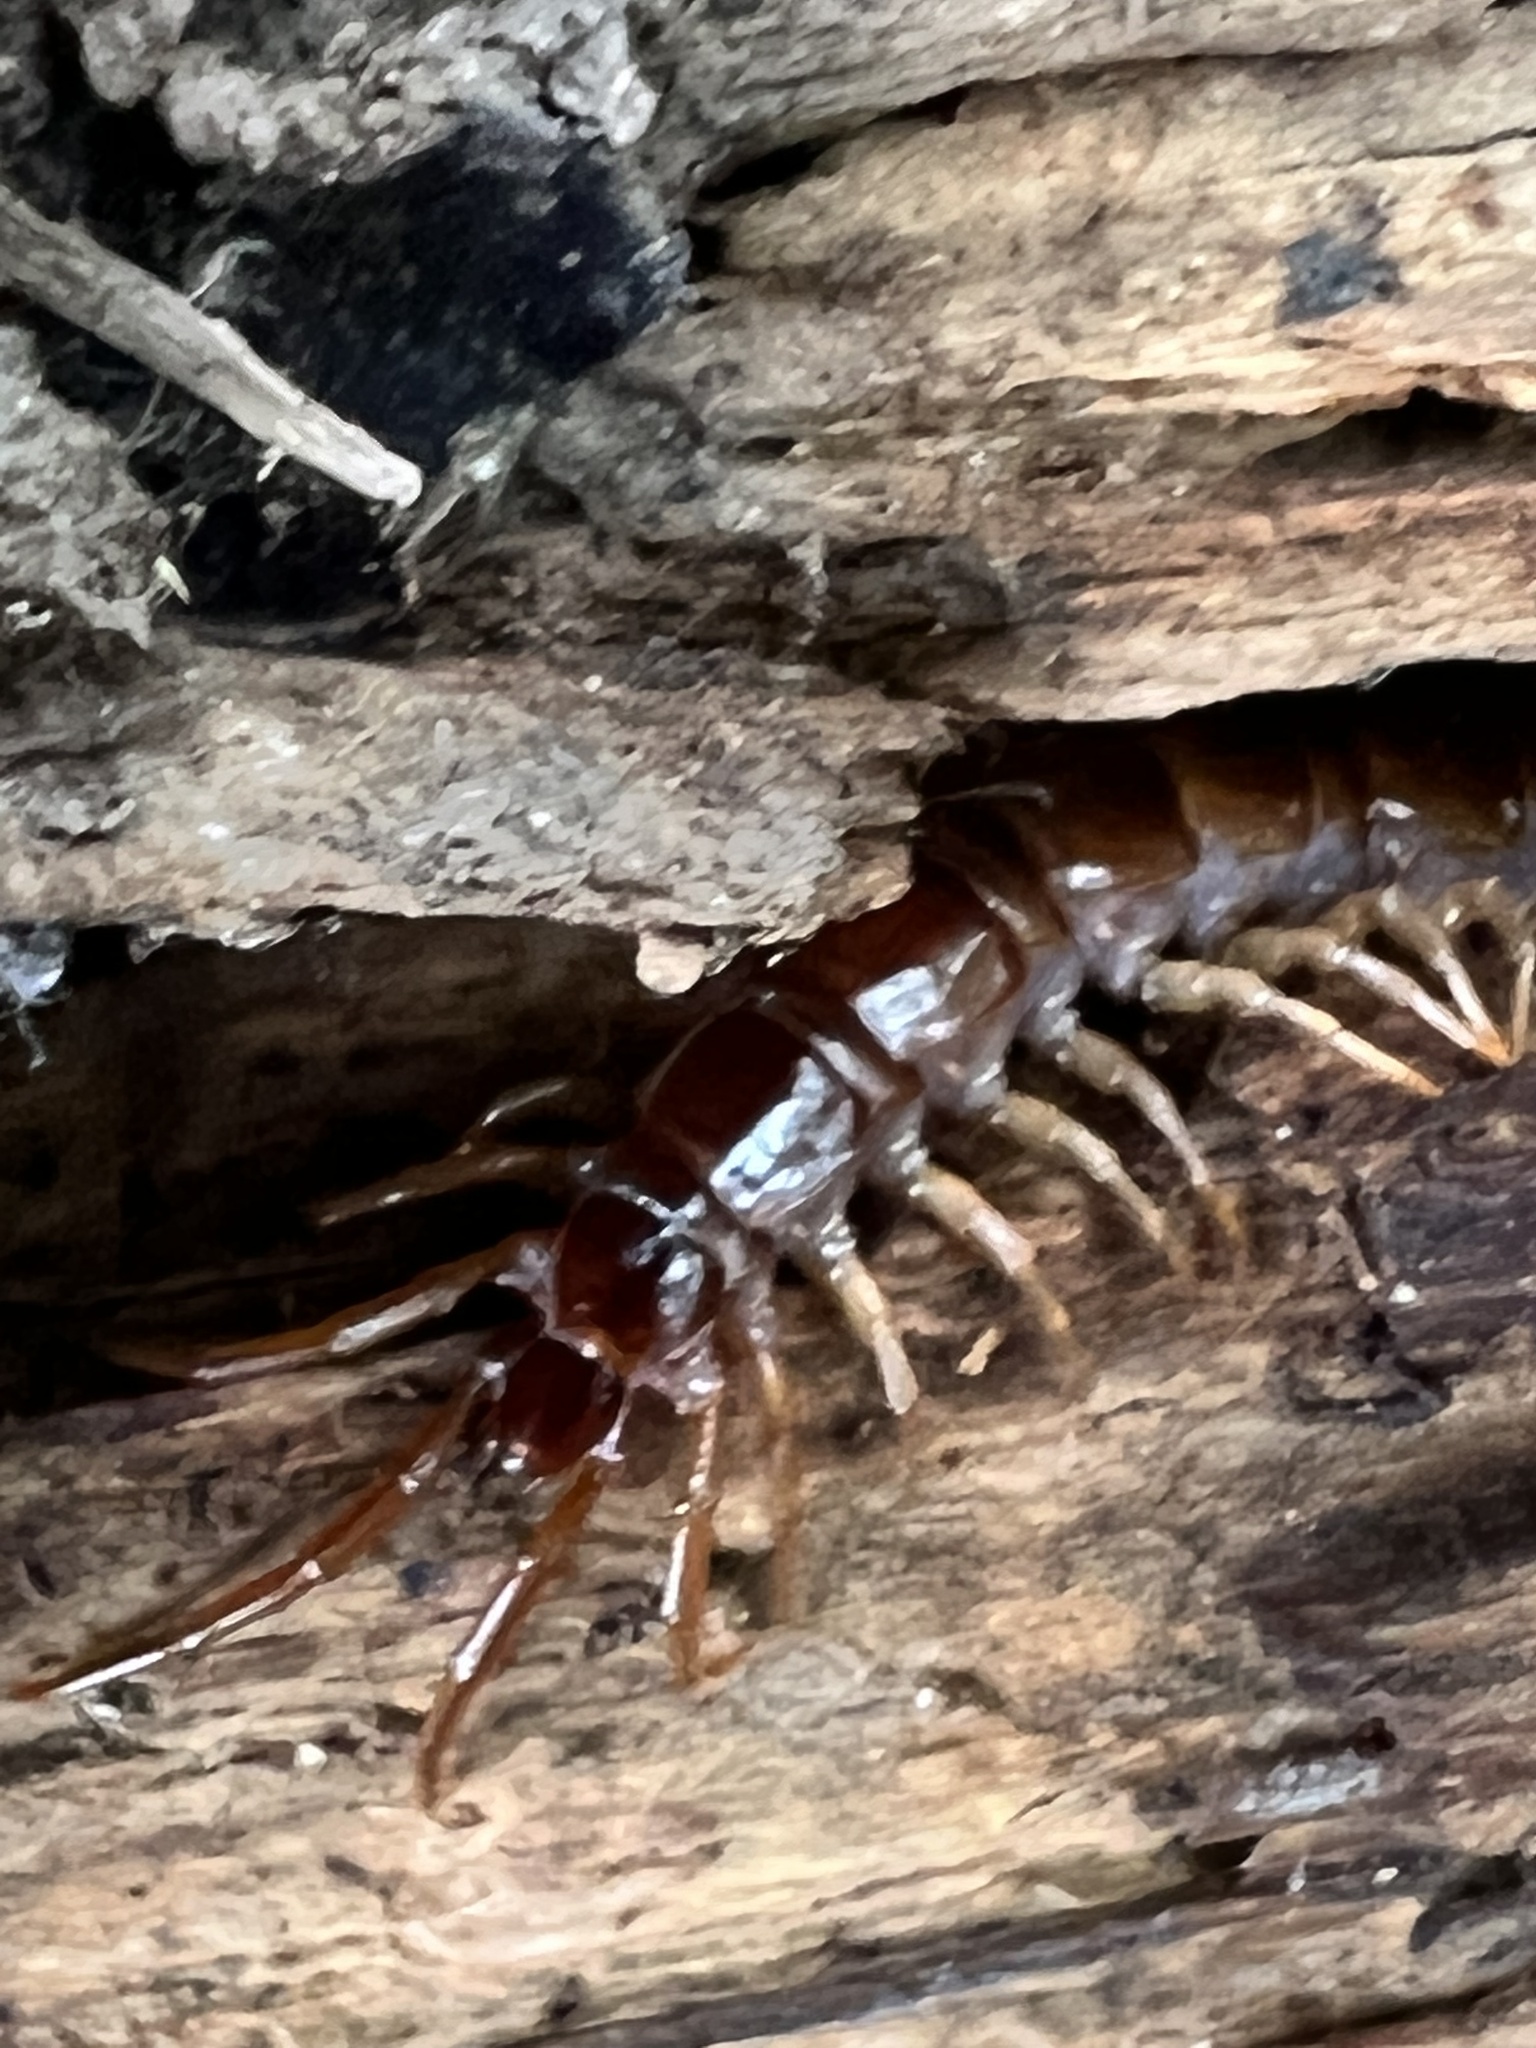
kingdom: Animalia
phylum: Arthropoda
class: Chilopoda
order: Lithobiomorpha
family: Lithobiidae
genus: Lithobius
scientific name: Lithobius forficatus
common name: Centipede
